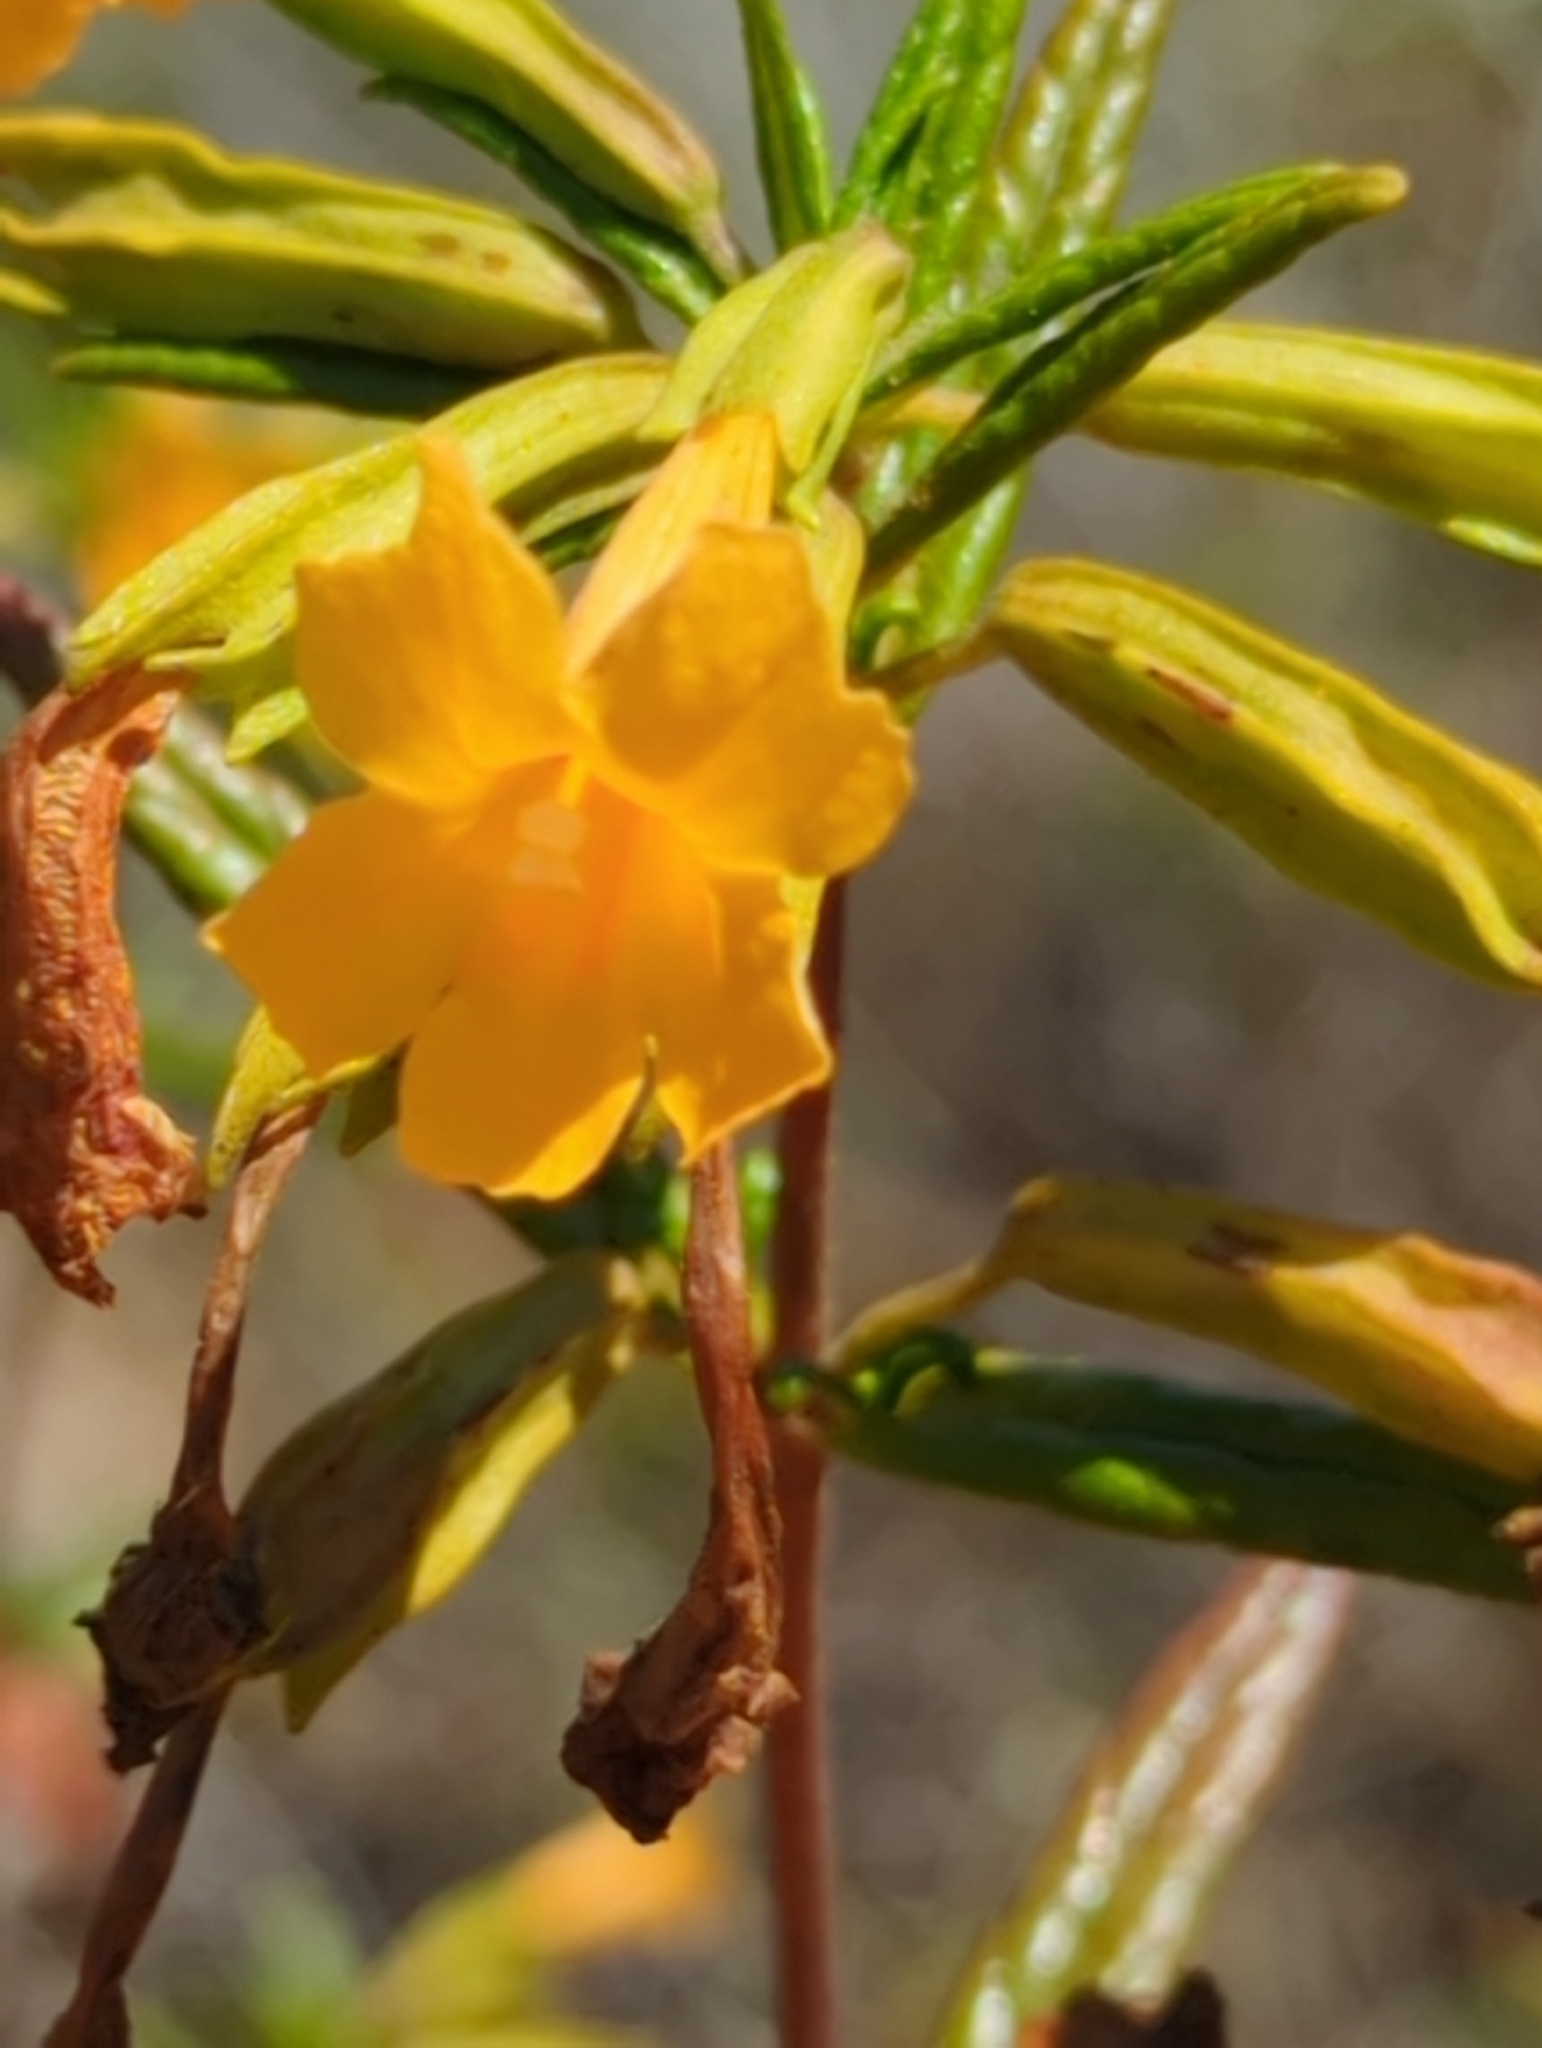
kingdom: Plantae
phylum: Tracheophyta
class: Magnoliopsida
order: Lamiales
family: Phrymaceae
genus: Diplacus
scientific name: Diplacus aurantiacus
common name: Bush monkey-flower
